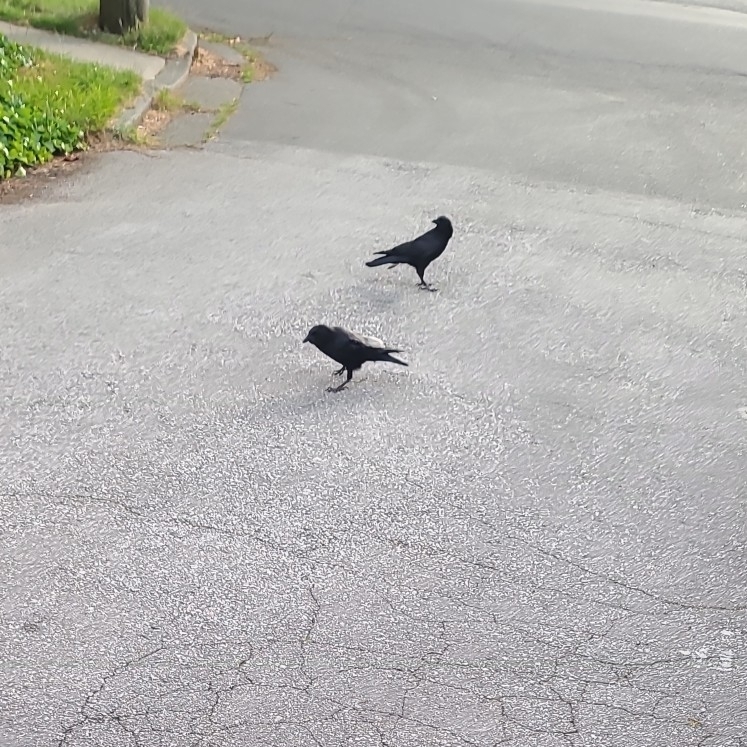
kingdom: Animalia
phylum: Chordata
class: Aves
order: Passeriformes
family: Corvidae
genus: Corvus
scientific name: Corvus brachyrhynchos
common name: American crow
